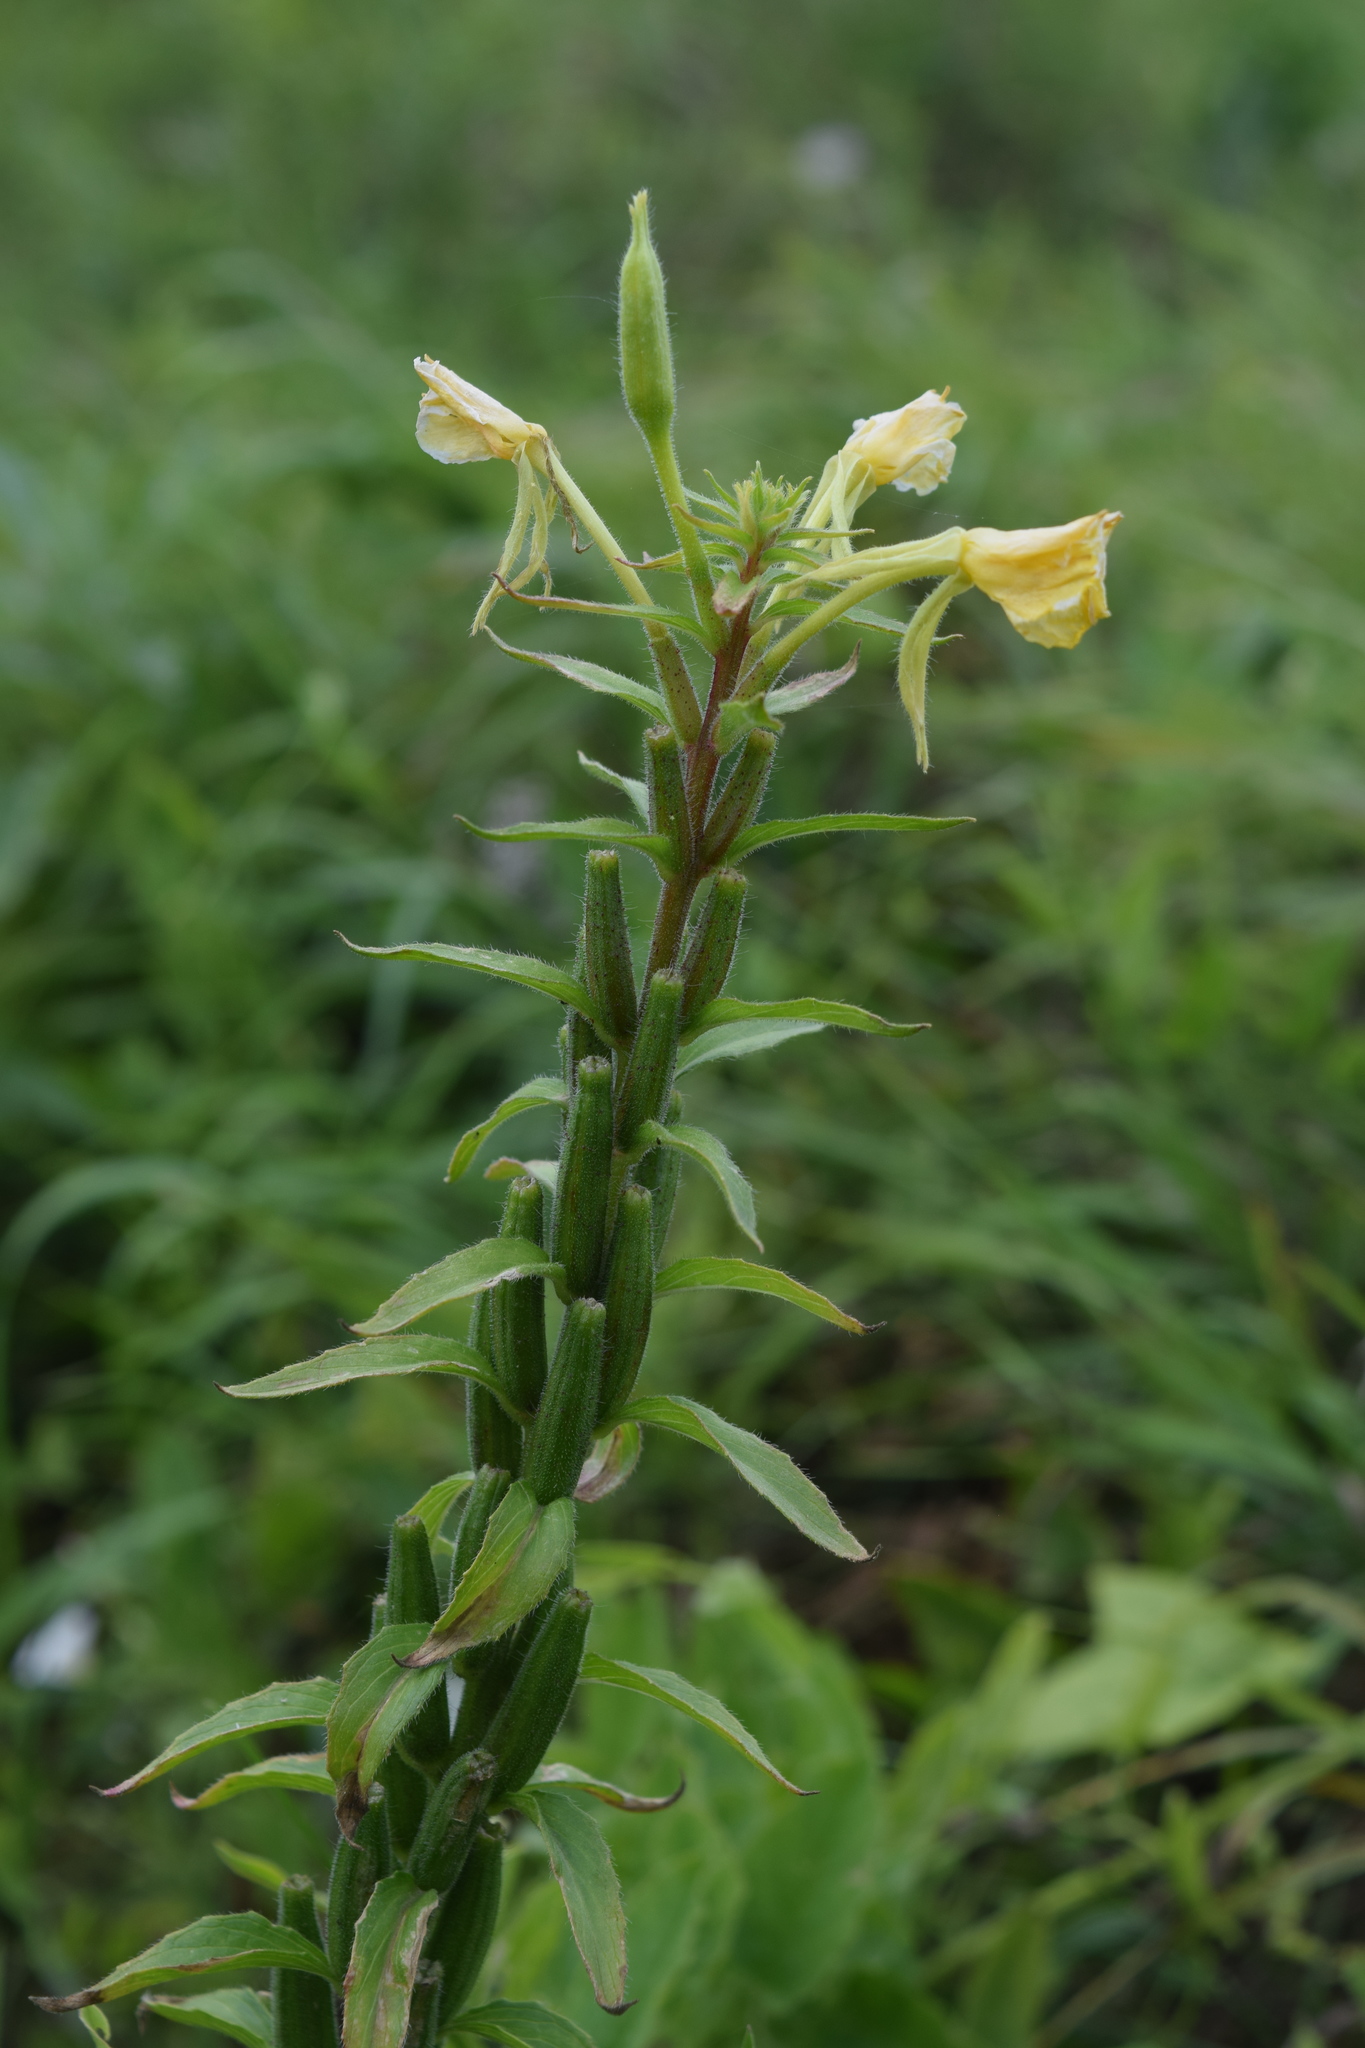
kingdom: Plantae
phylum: Tracheophyta
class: Magnoliopsida
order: Myrtales
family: Onagraceae
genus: Oenothera
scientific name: Oenothera rubricaulis
